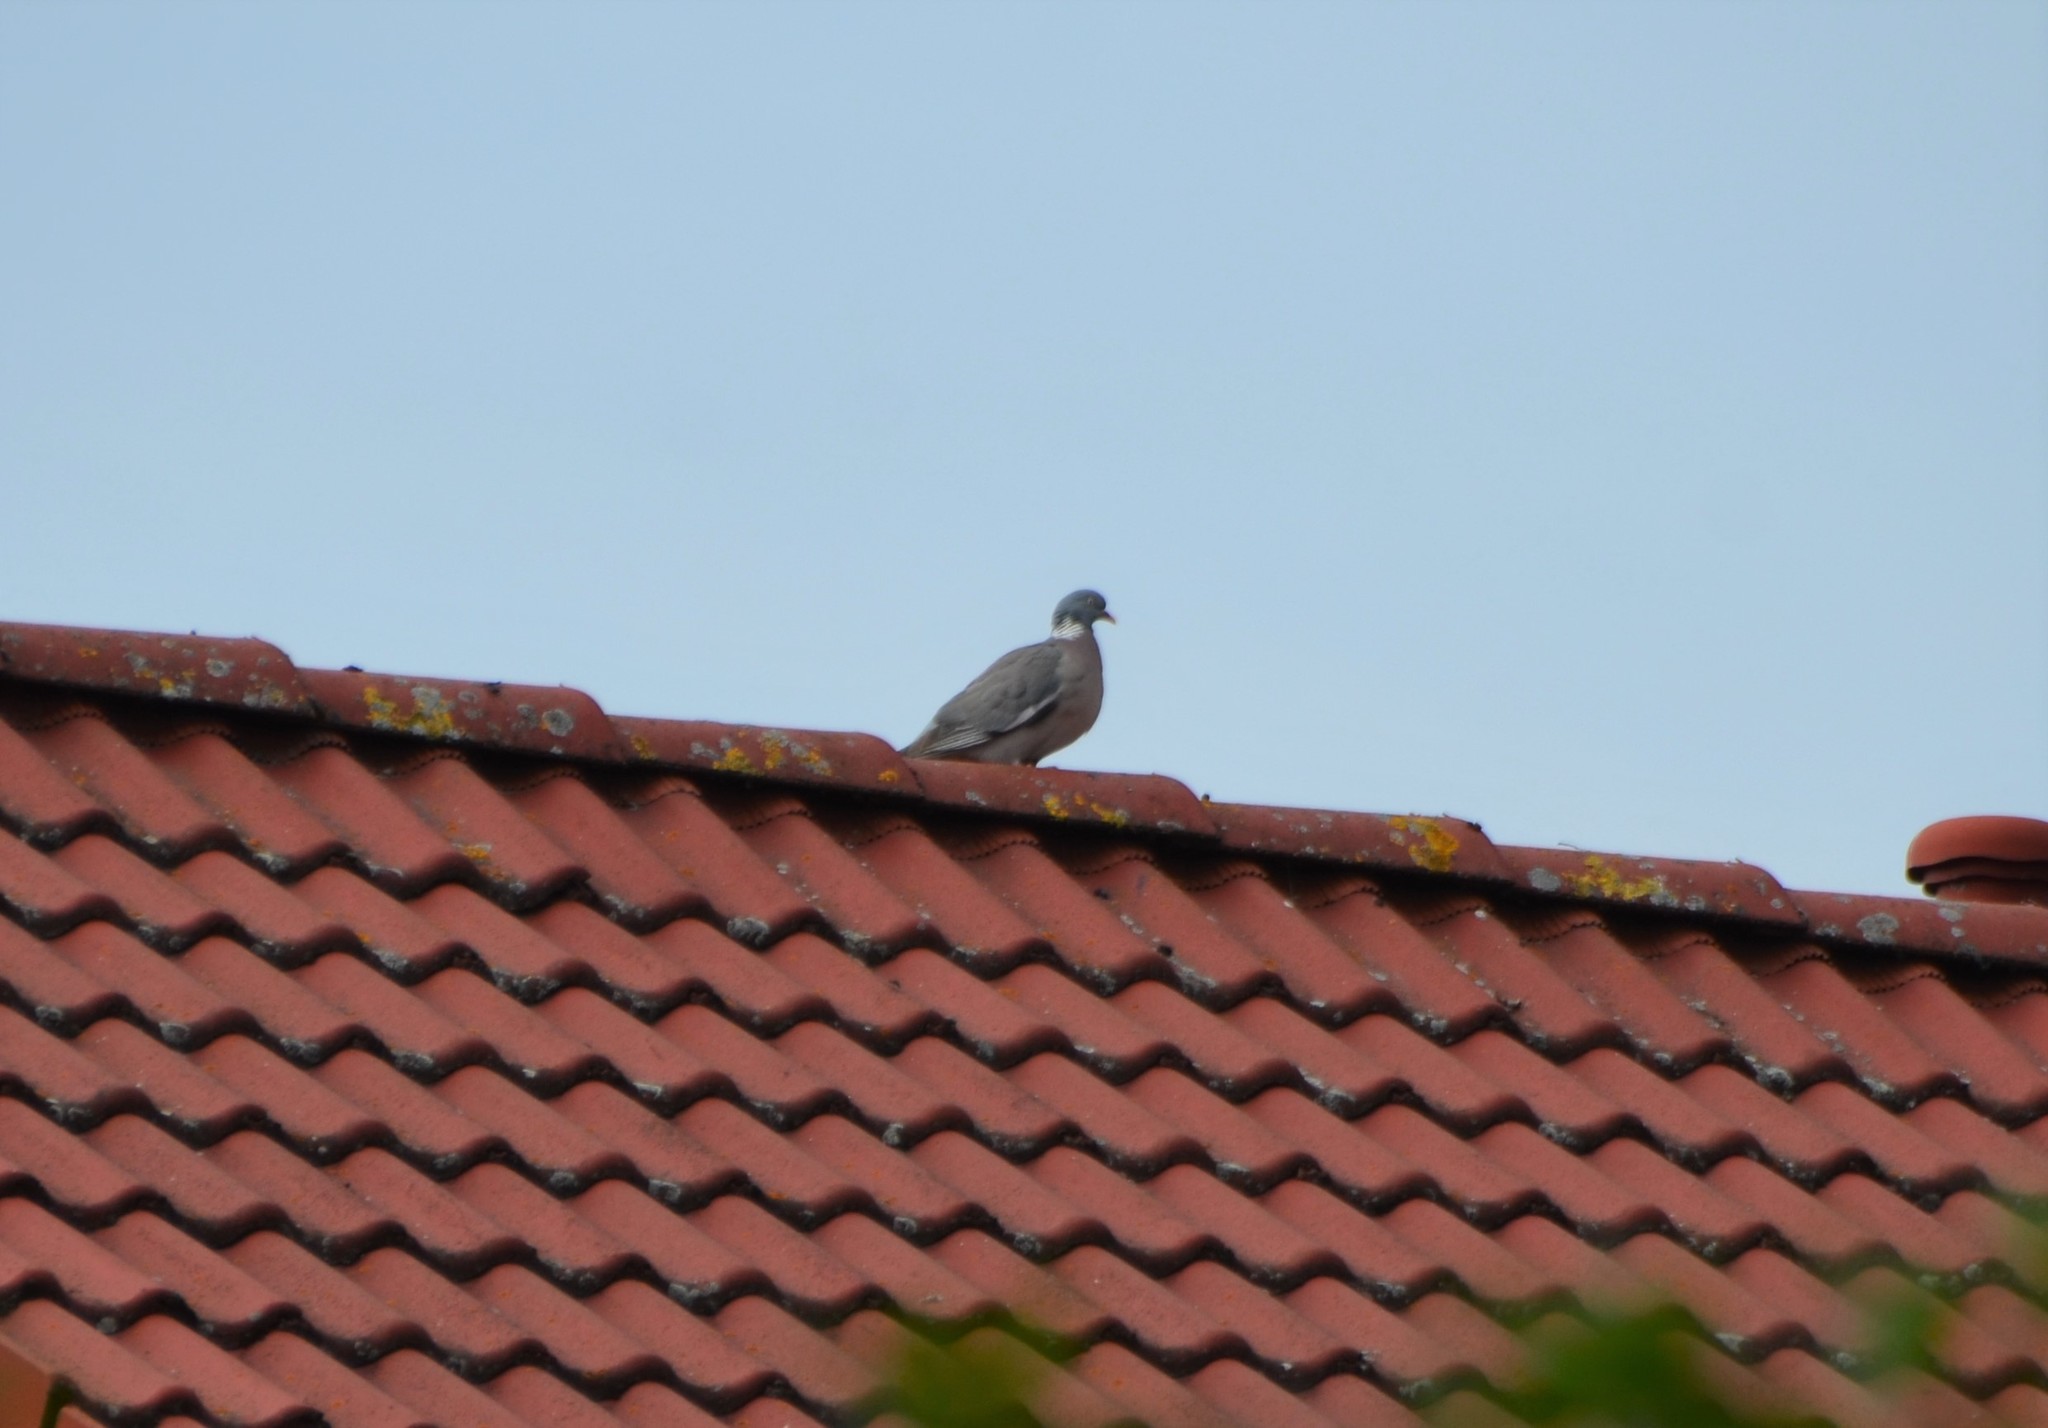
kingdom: Animalia
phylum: Chordata
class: Aves
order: Columbiformes
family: Columbidae
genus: Columba
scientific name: Columba palumbus
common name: Common wood pigeon
